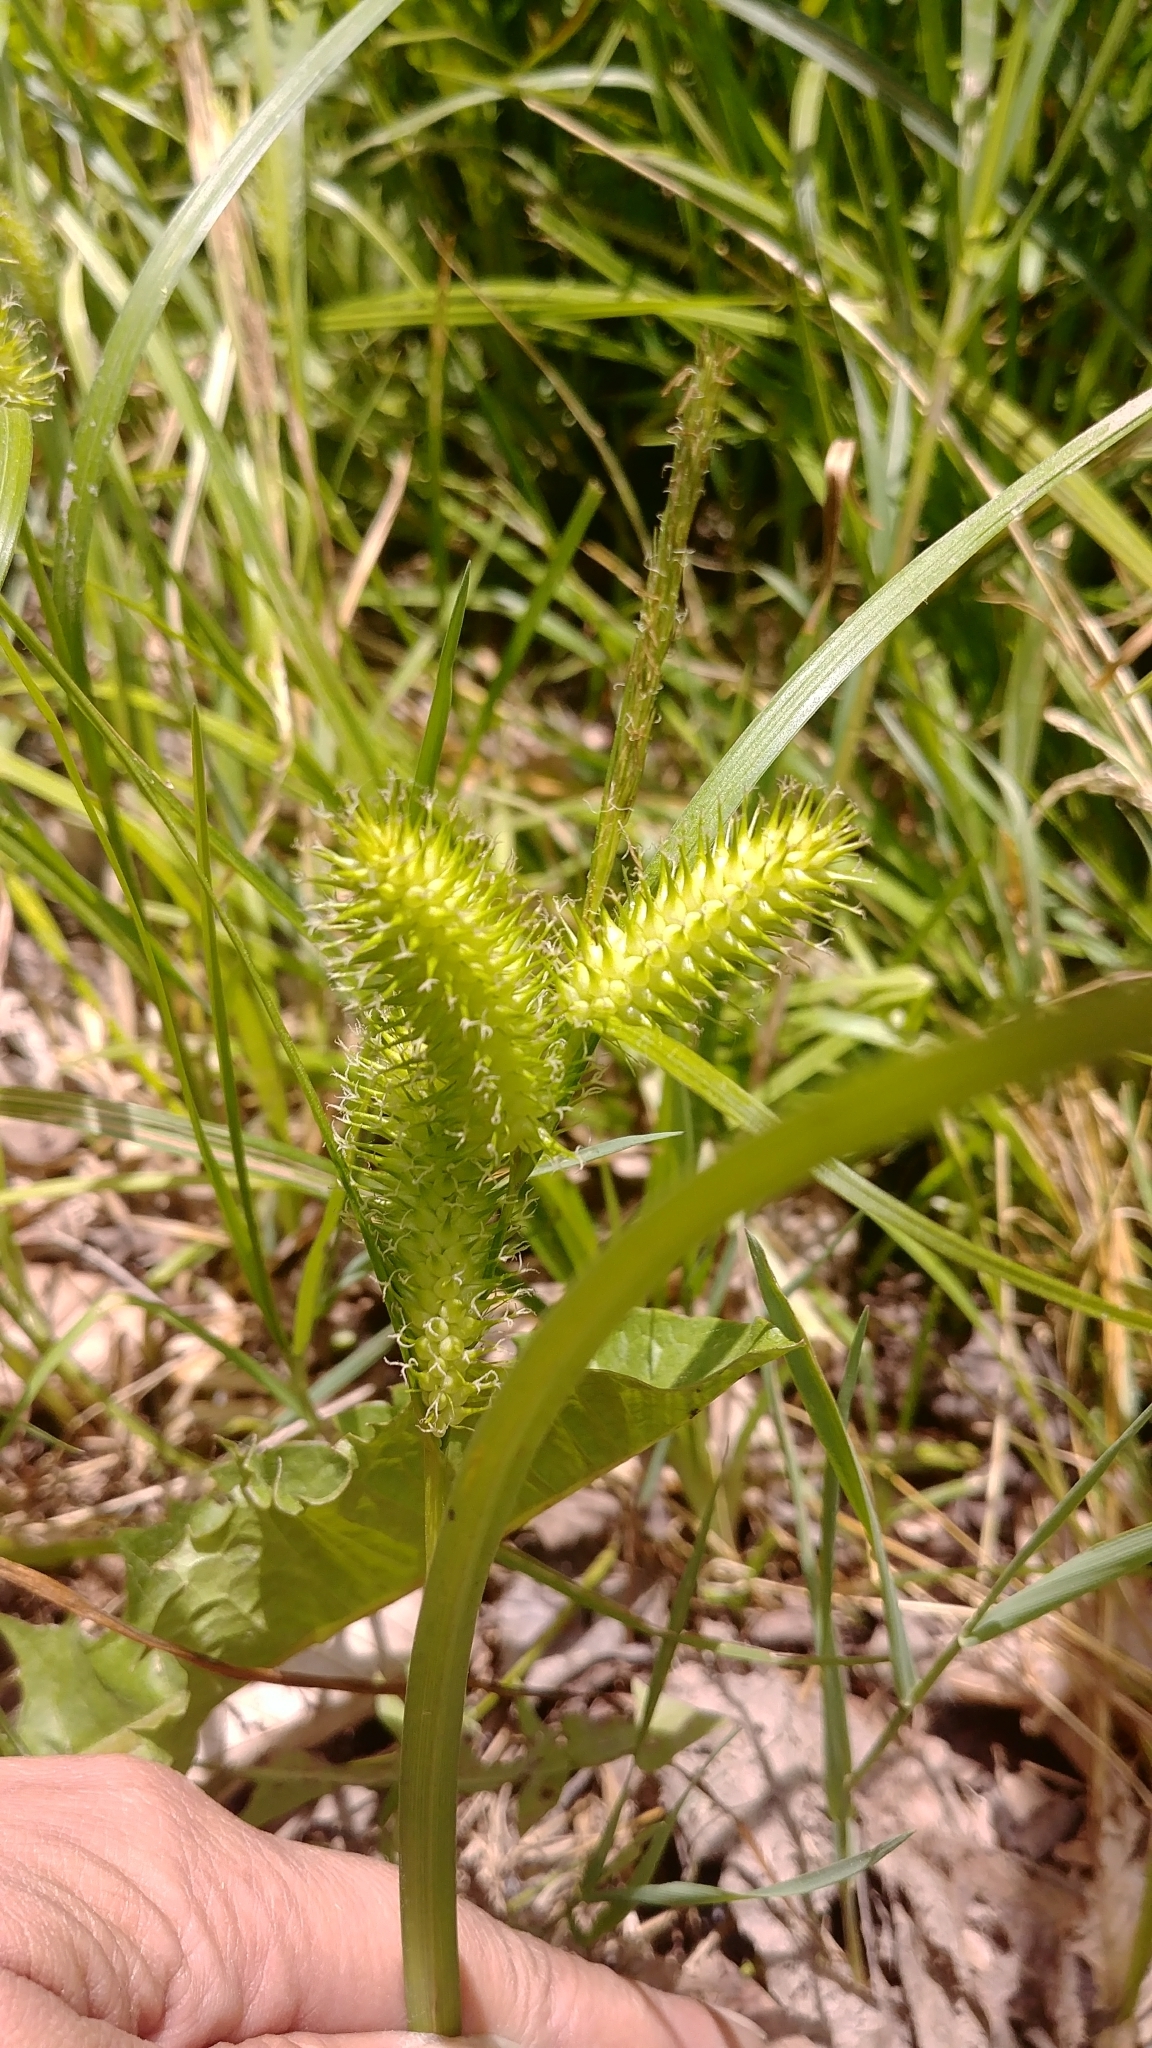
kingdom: Plantae
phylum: Tracheophyta
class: Liliopsida
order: Poales
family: Cyperaceae
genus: Carex
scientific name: Carex lurida
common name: Sallow sedge
